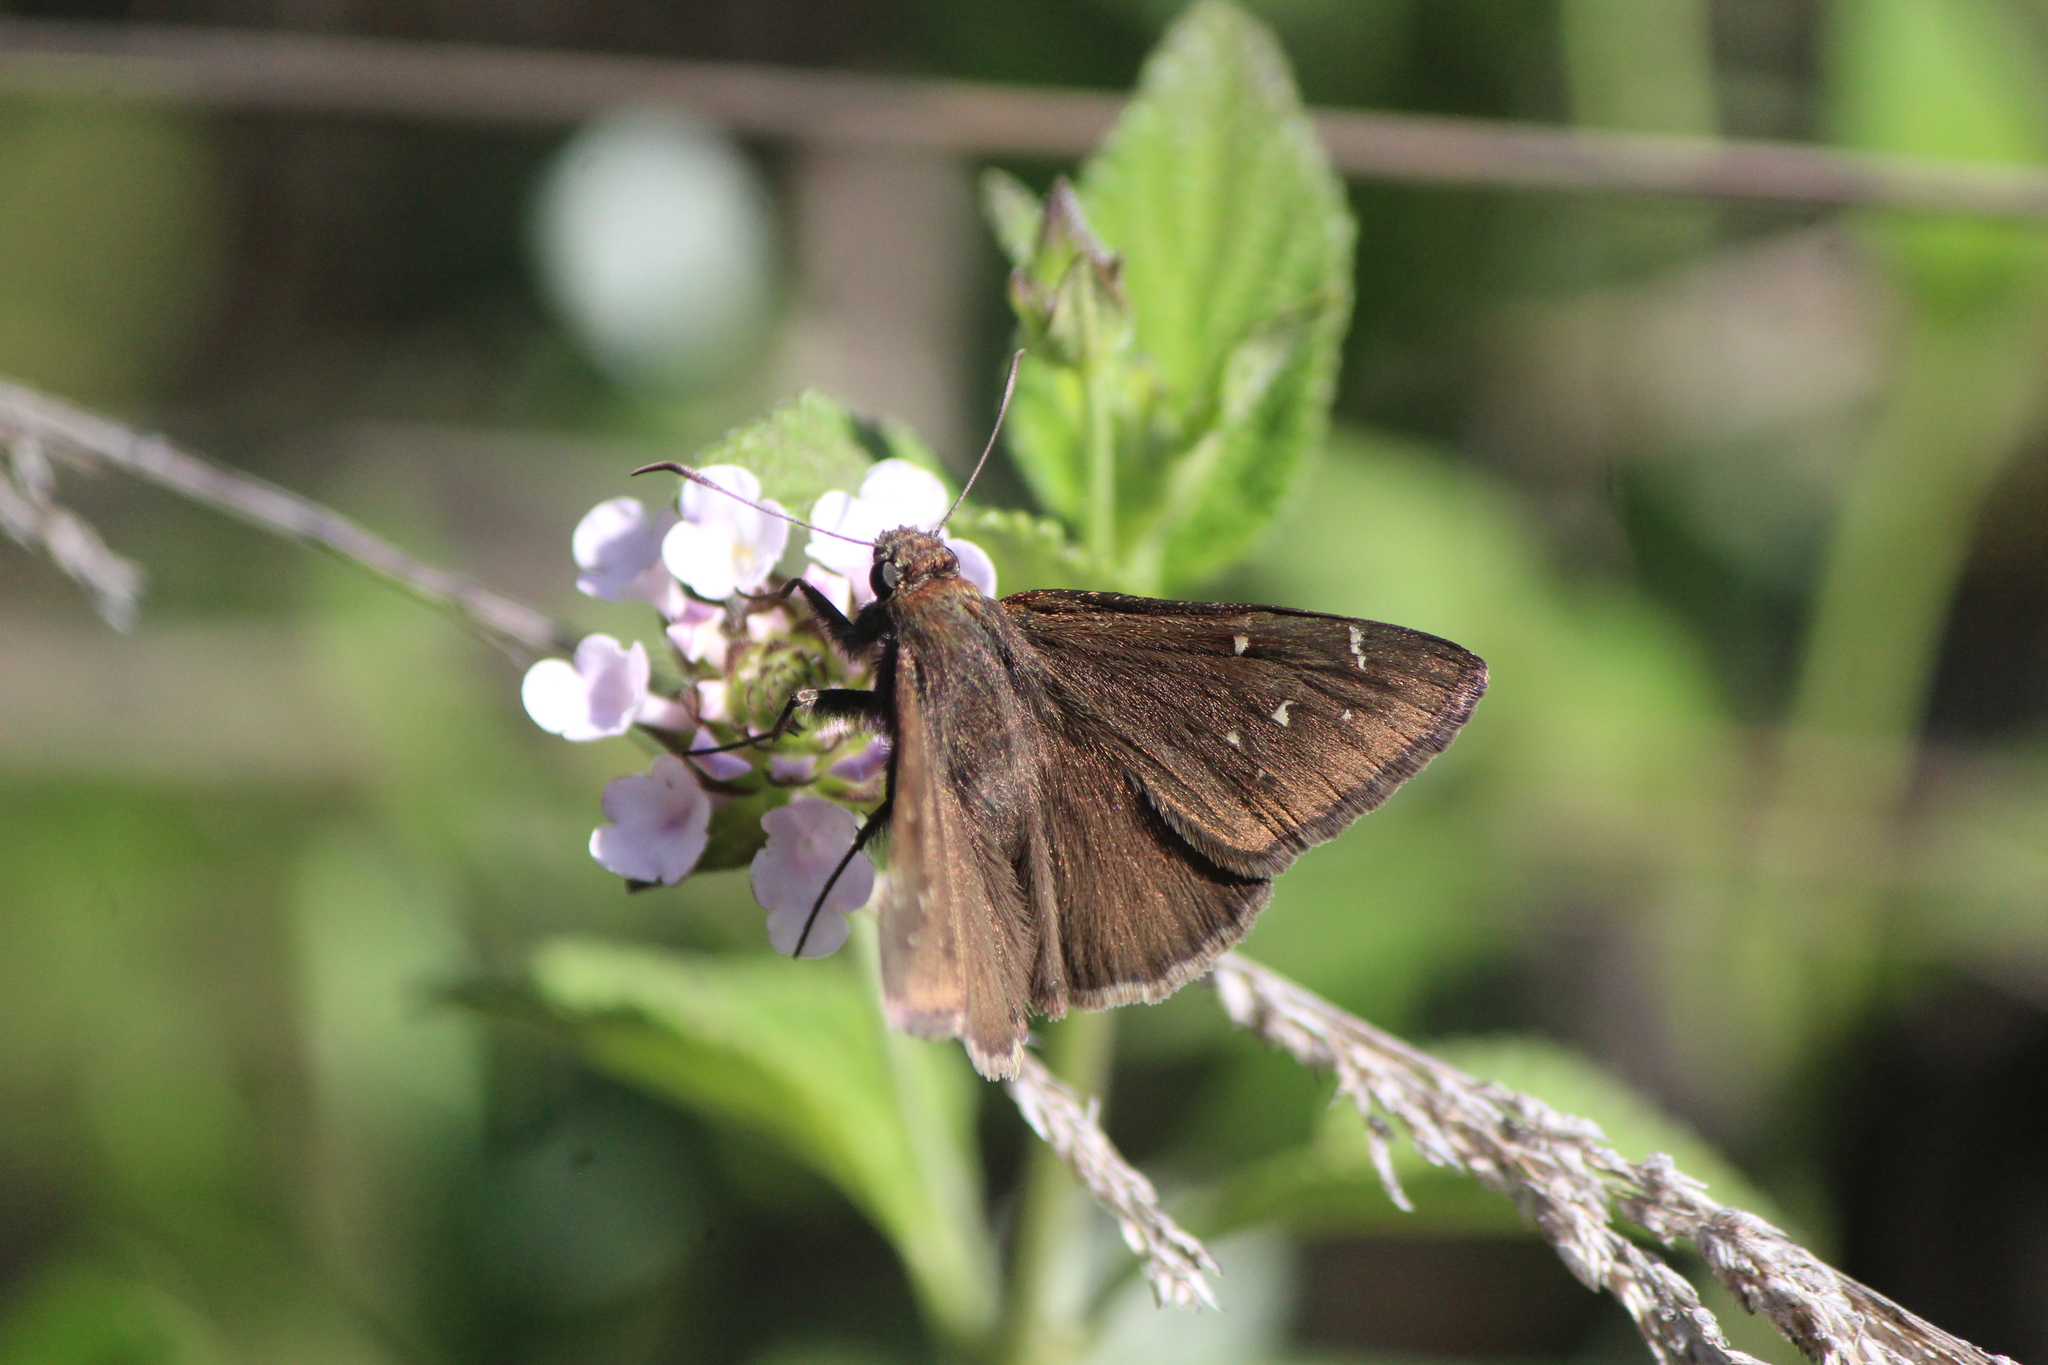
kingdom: Animalia
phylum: Arthropoda
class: Insecta
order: Lepidoptera
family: Hesperiidae
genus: Thorybes
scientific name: Thorybes pylades
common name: Northern cloudywing
